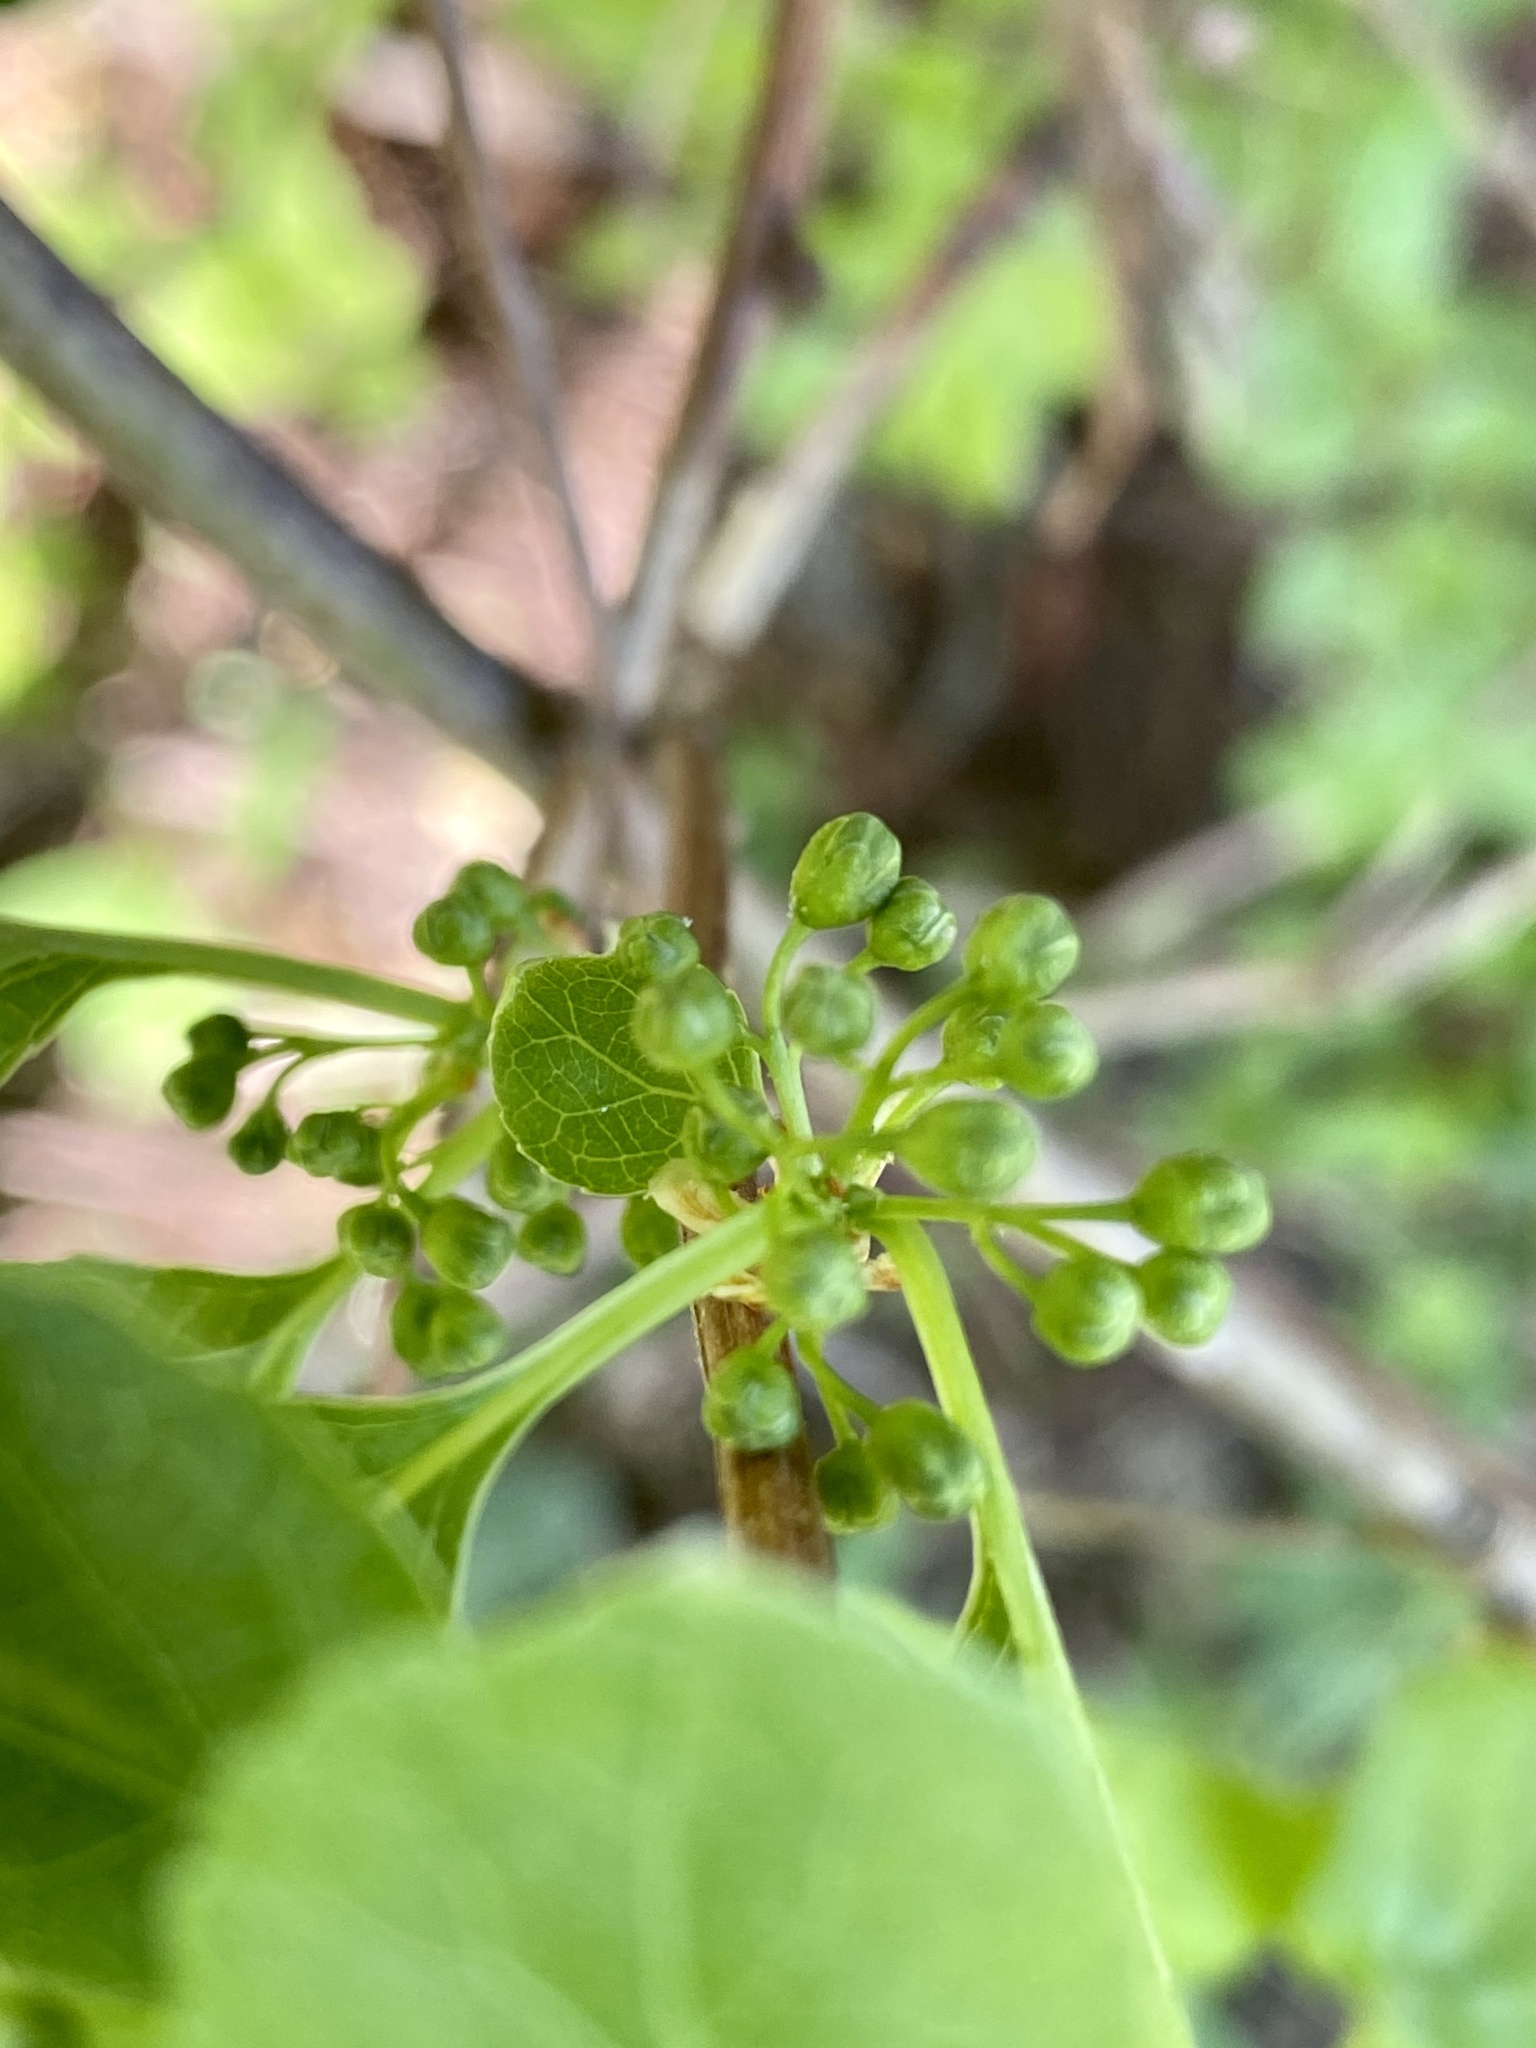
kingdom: Plantae
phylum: Tracheophyta
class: Magnoliopsida
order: Celastrales
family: Celastraceae
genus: Celastrus
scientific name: Celastrus orbiculatus
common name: Oriental bittersweet
